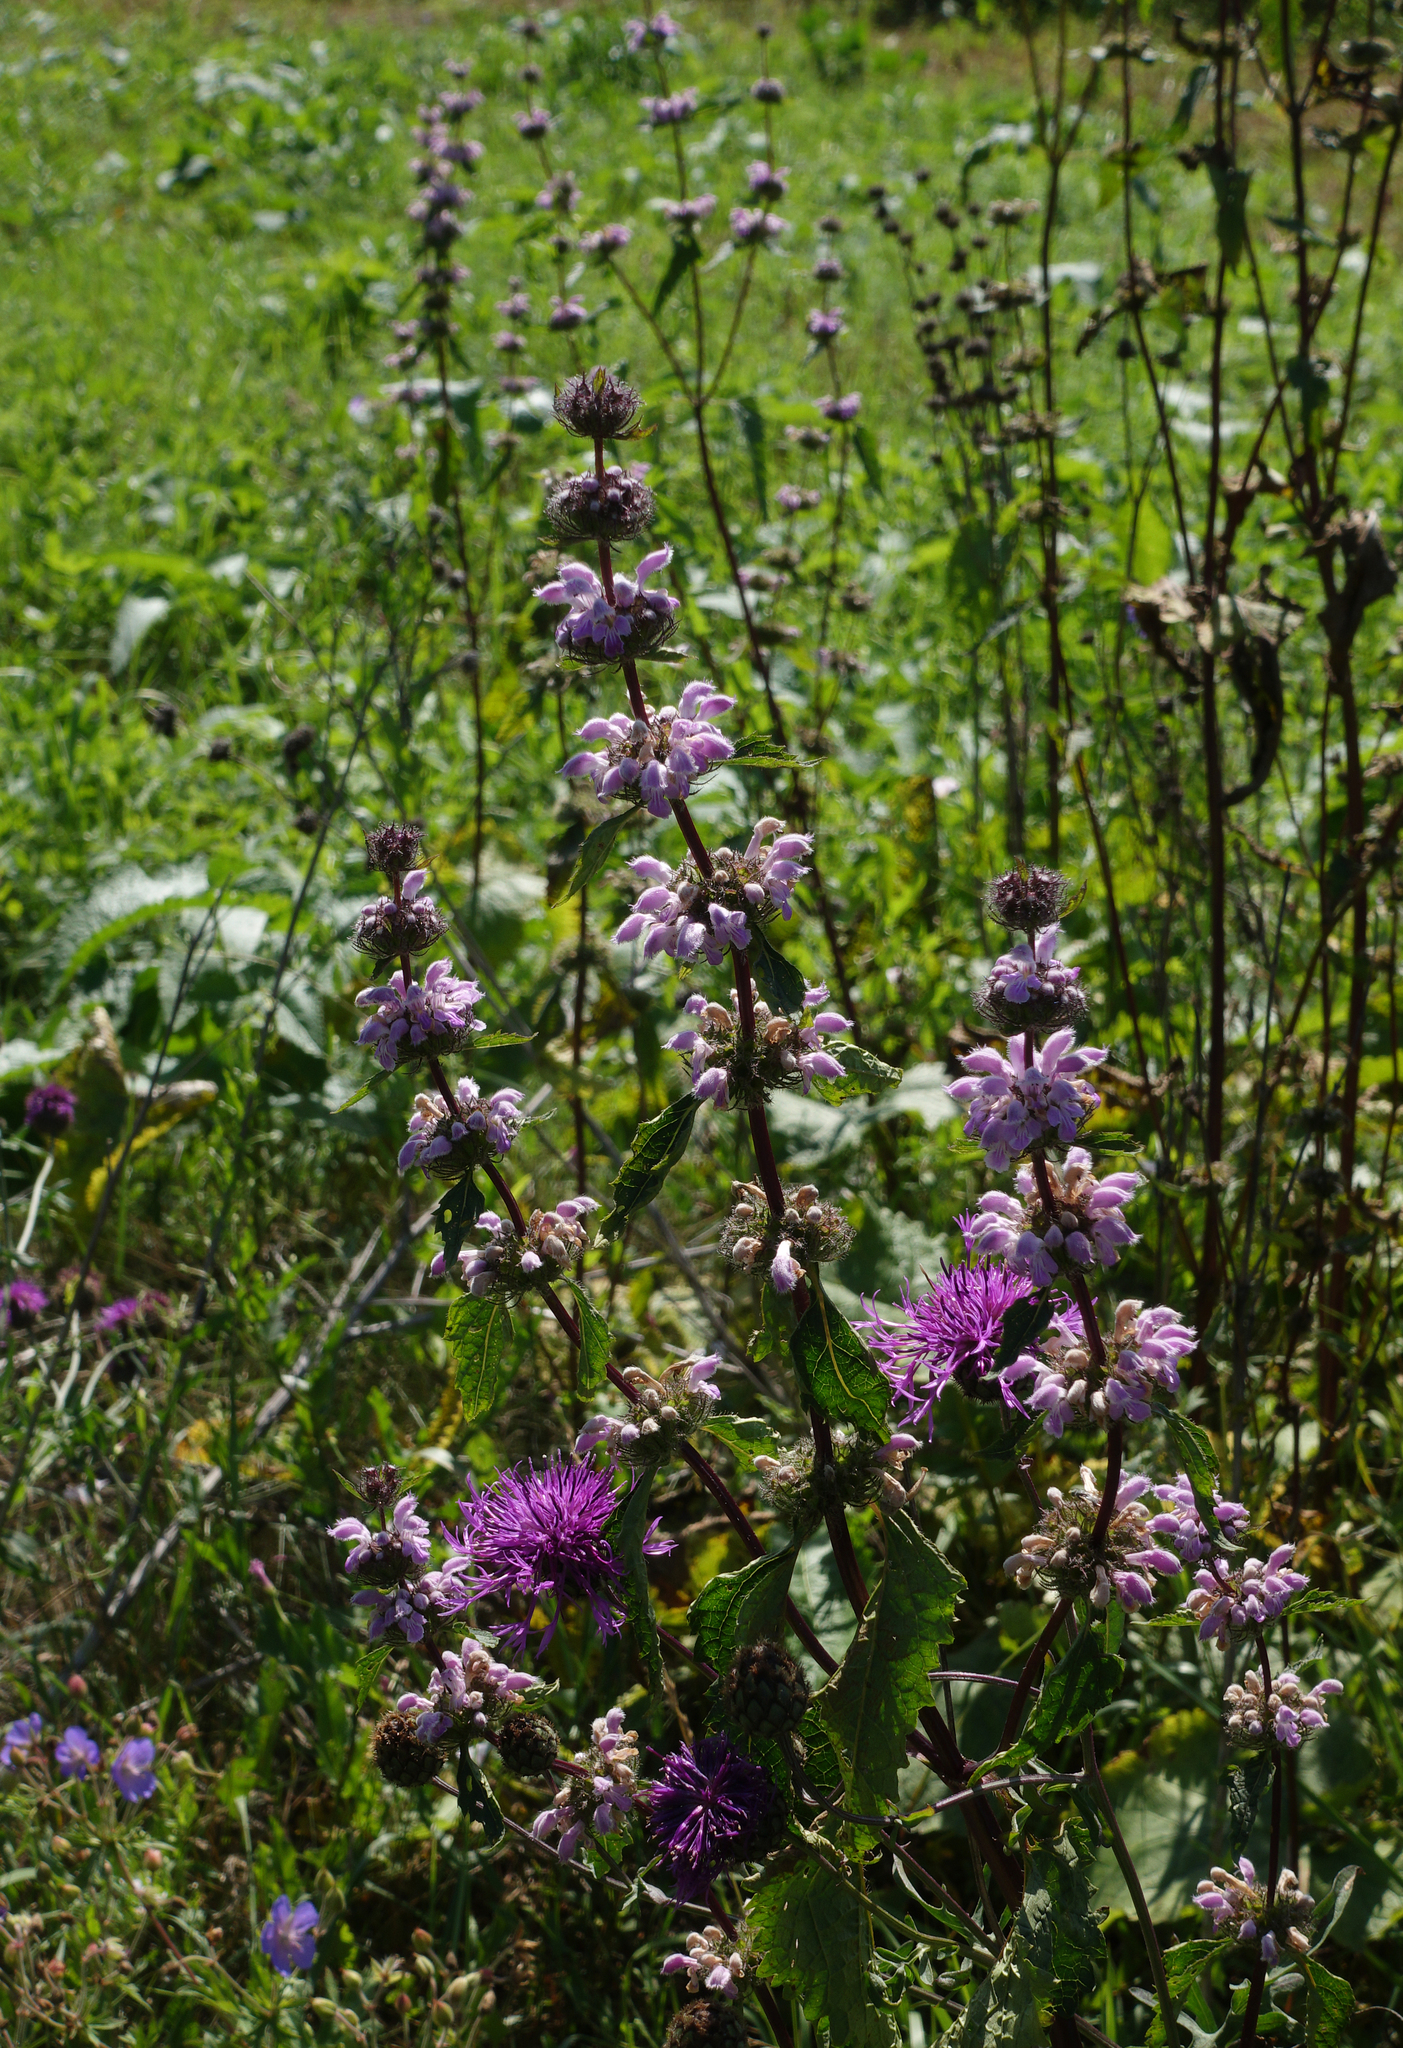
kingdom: Plantae
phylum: Tracheophyta
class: Magnoliopsida
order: Lamiales
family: Lamiaceae
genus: Phlomoides
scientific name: Phlomoides tuberosa
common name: Tuberous jerusalem sage
